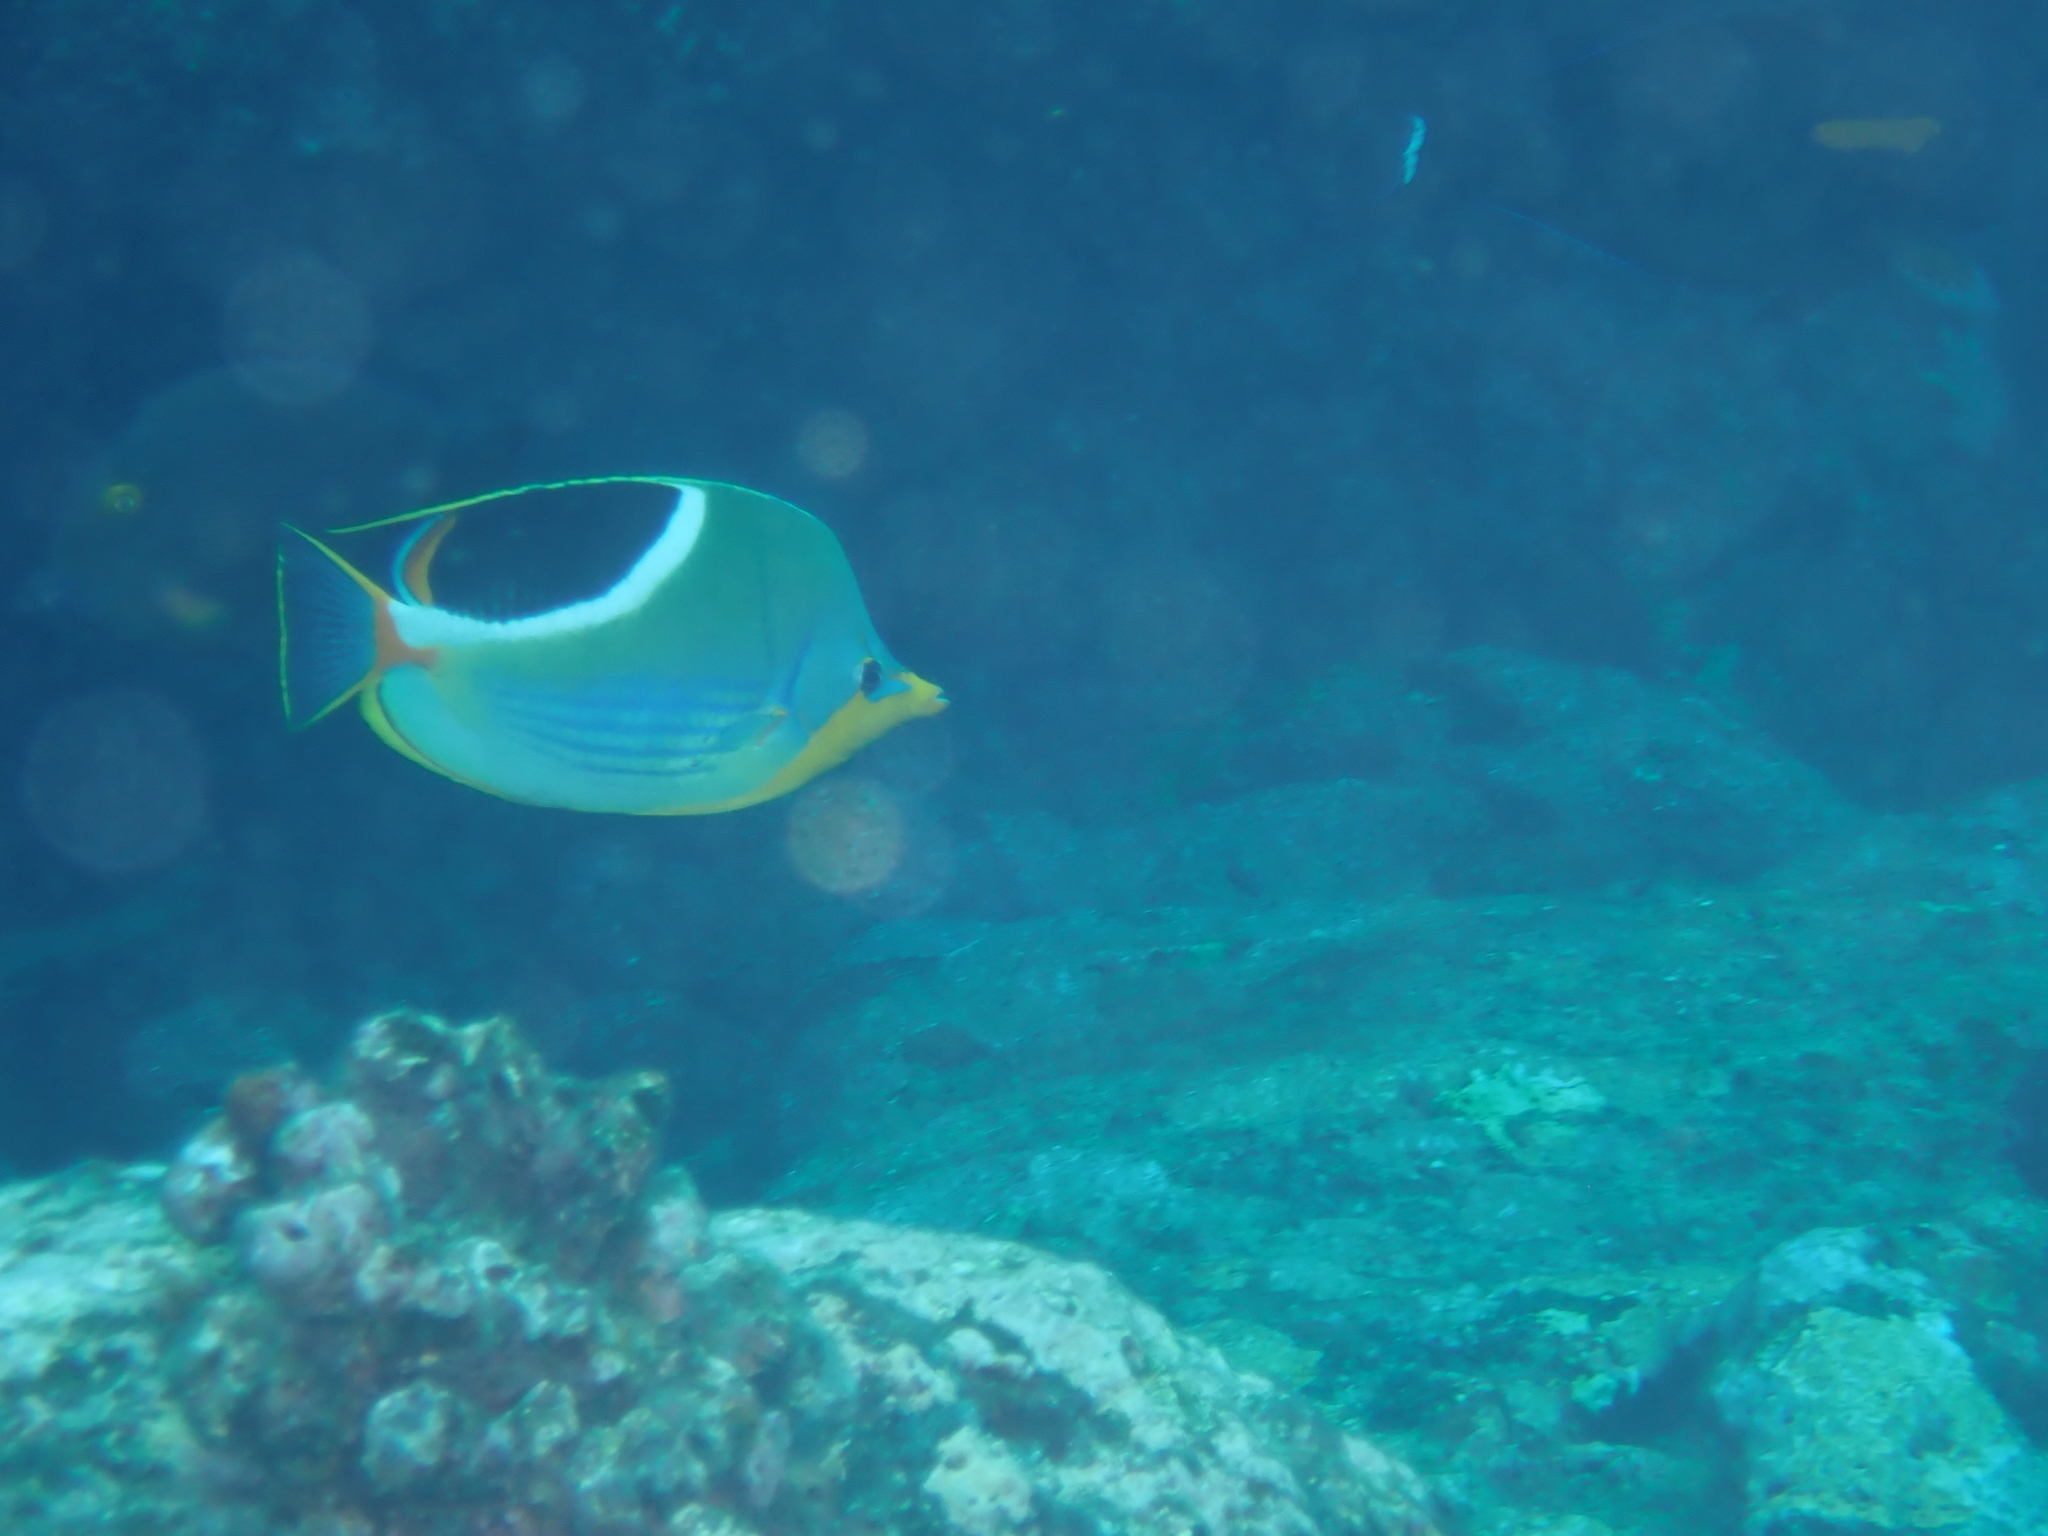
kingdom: Animalia
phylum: Chordata
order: Perciformes
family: Chaetodontidae
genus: Chaetodon
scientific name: Chaetodon ephippium
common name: Saddled butterflyfish
